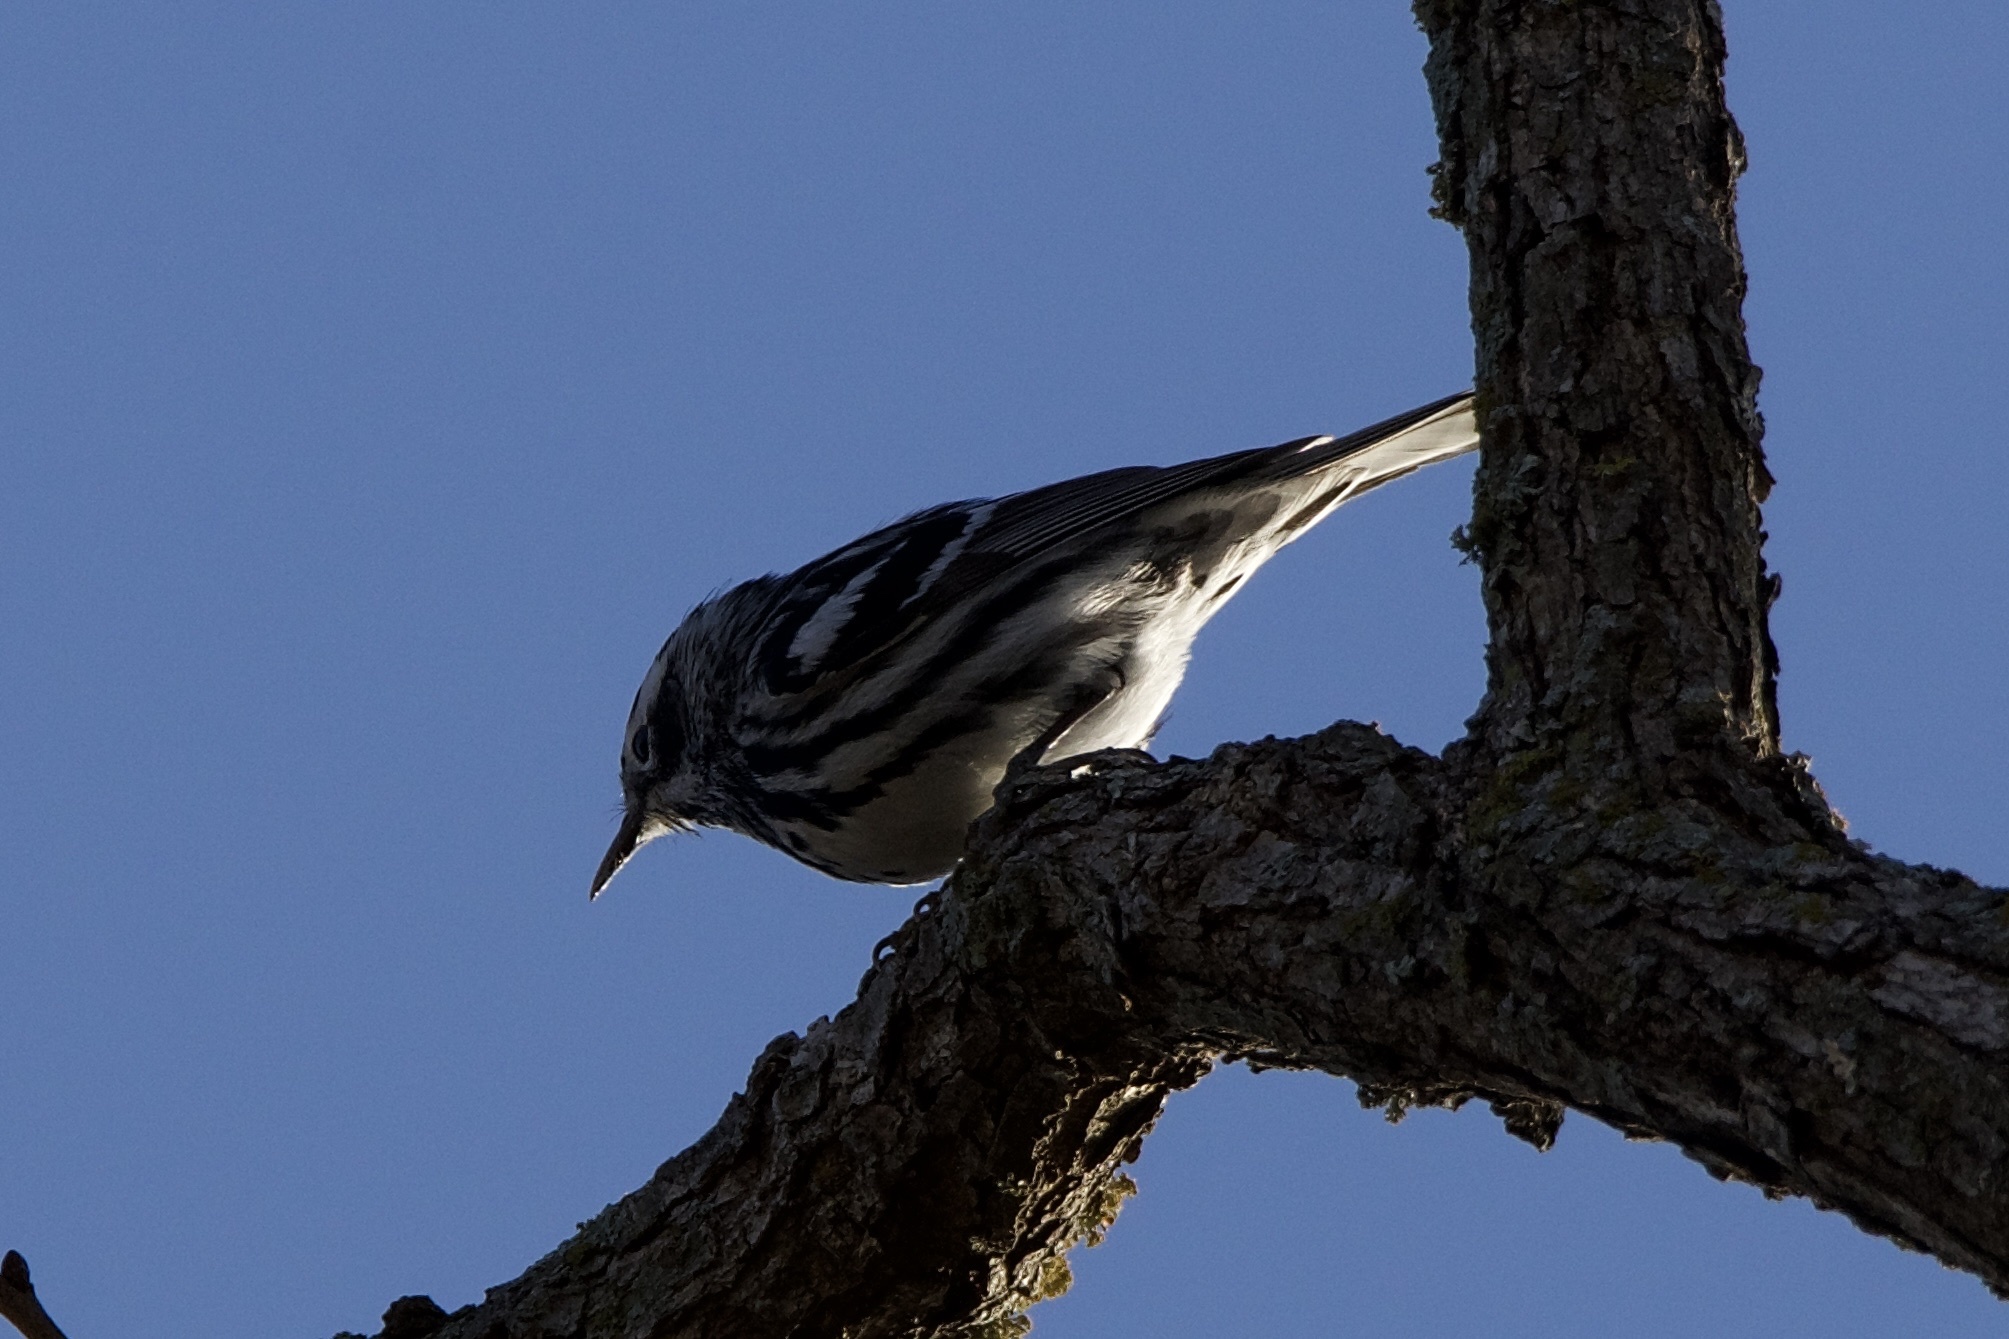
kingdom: Animalia
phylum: Chordata
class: Aves
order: Passeriformes
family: Parulidae
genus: Mniotilta
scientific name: Mniotilta varia
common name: Black-and-white warbler
